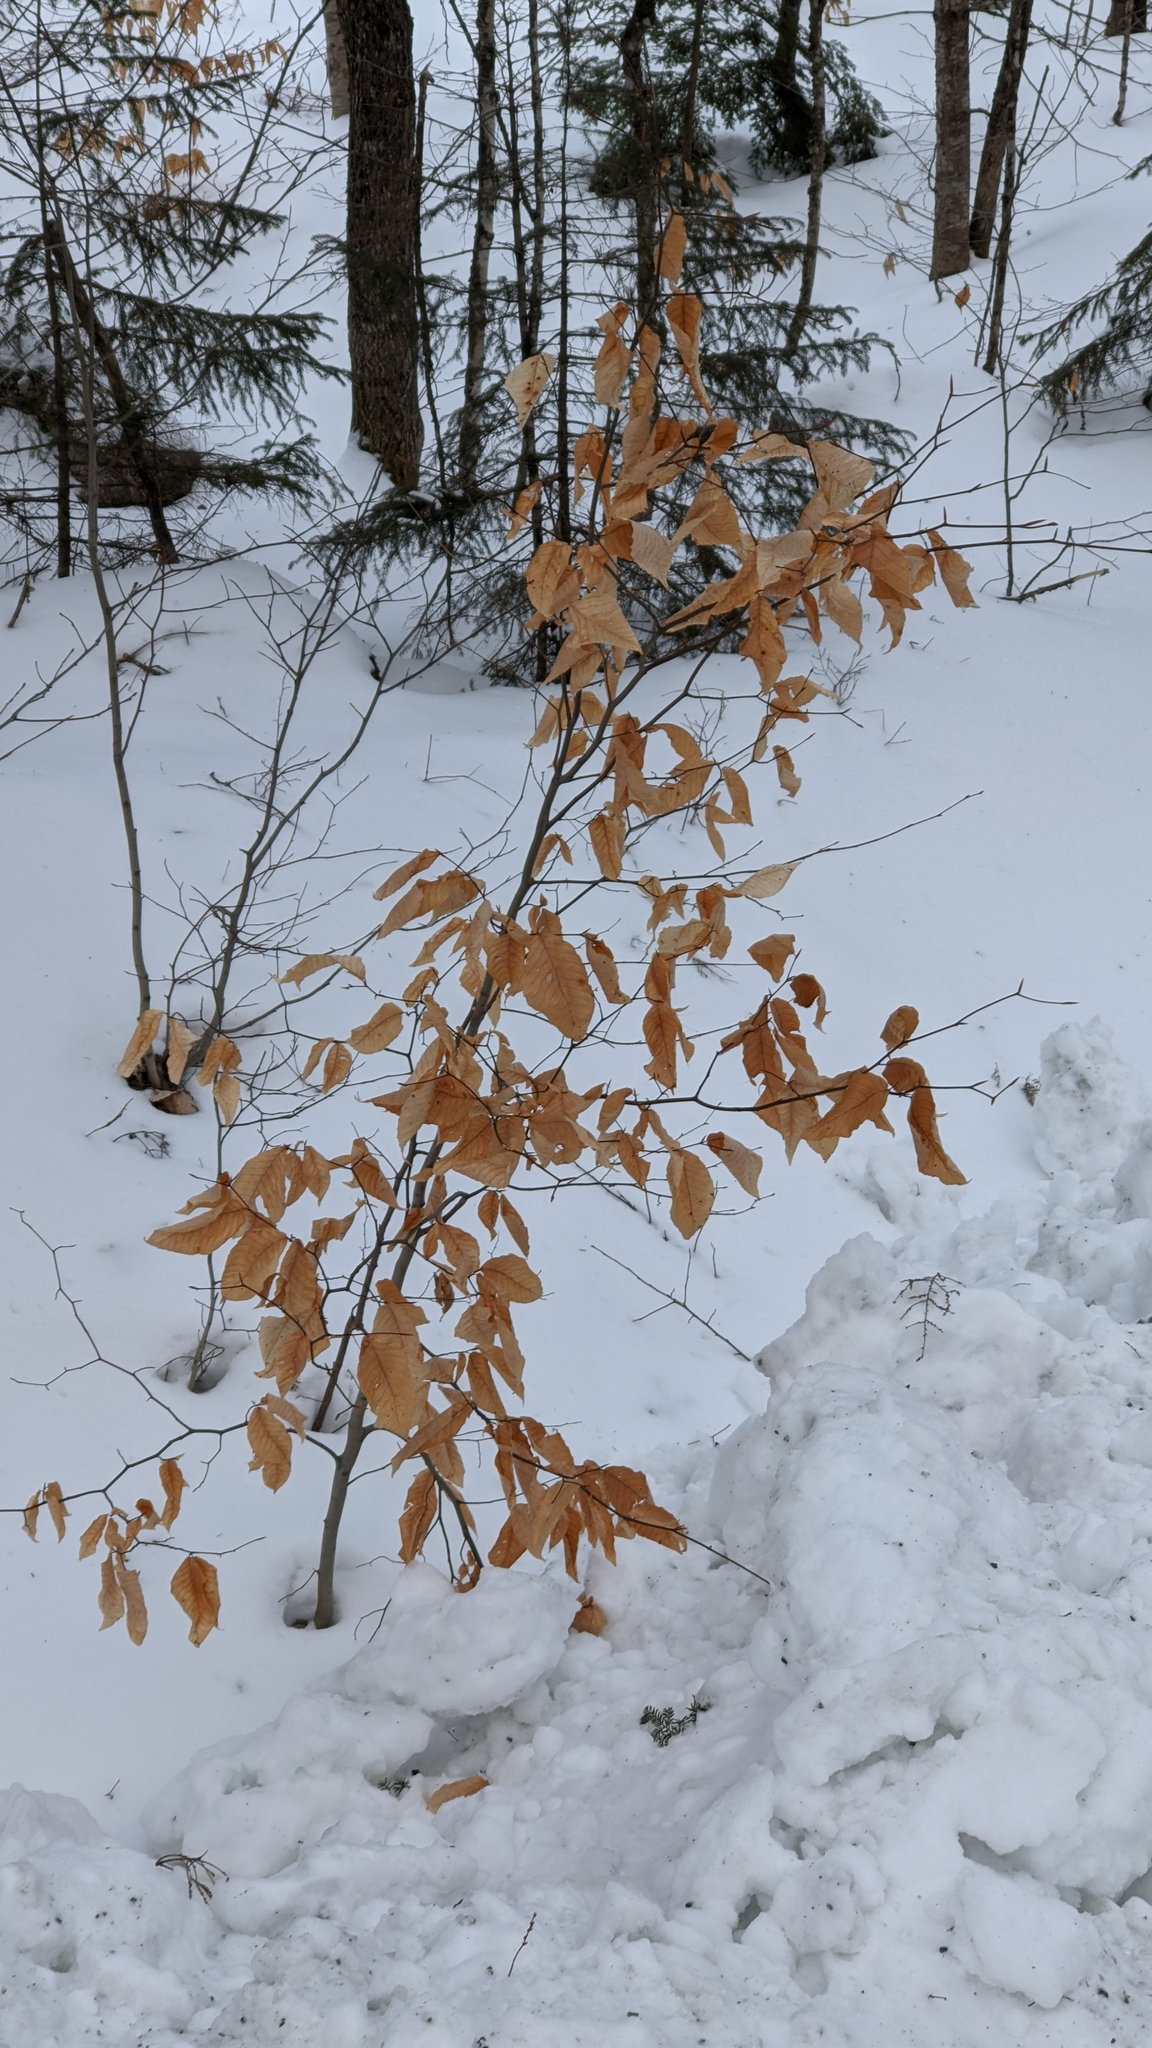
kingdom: Plantae
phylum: Tracheophyta
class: Magnoliopsida
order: Fagales
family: Fagaceae
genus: Fagus
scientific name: Fagus grandifolia
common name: American beech
